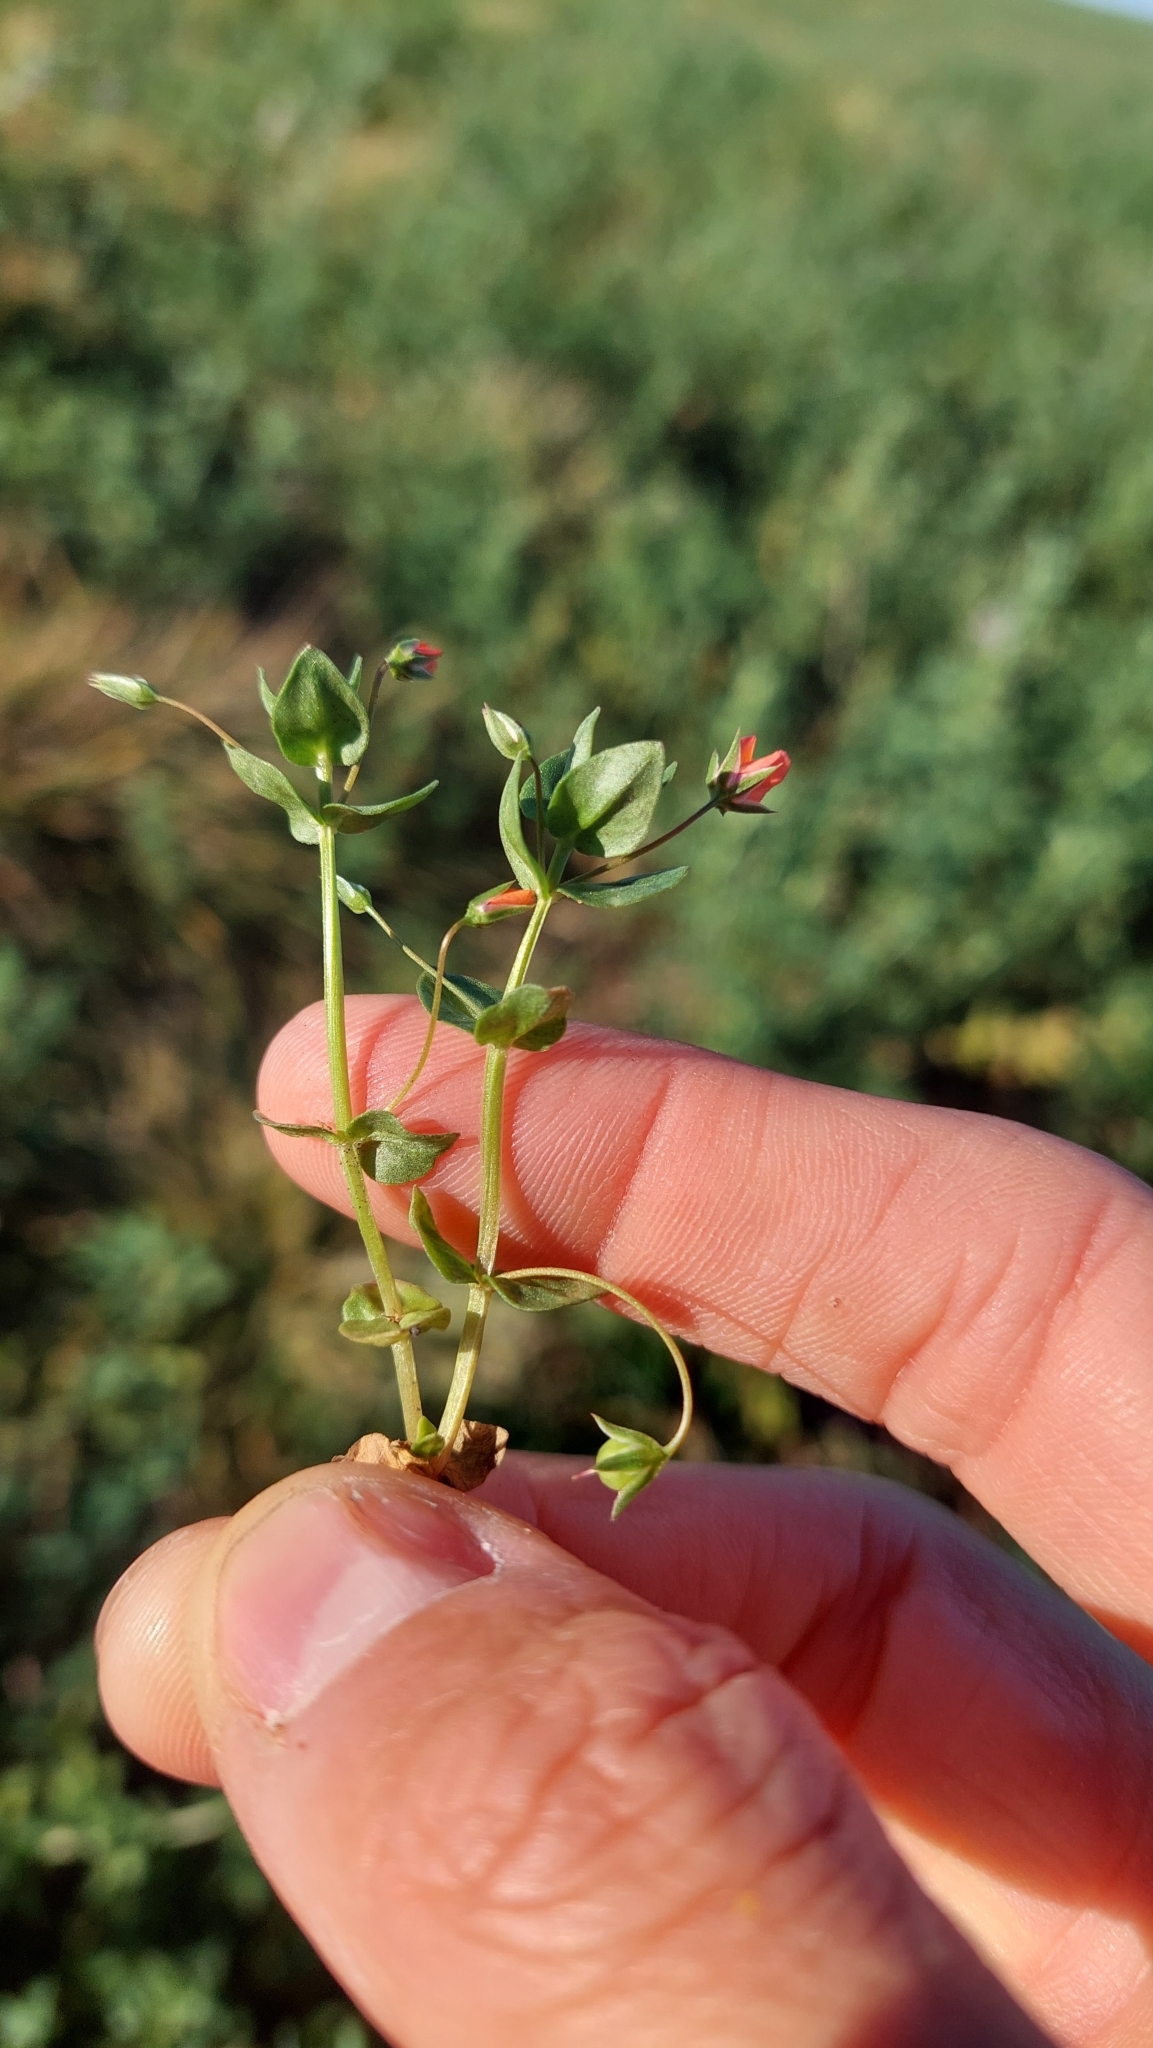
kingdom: Plantae
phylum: Tracheophyta
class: Magnoliopsida
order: Ericales
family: Primulaceae
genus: Lysimachia
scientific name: Lysimachia arvensis
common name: Scarlet pimpernel
